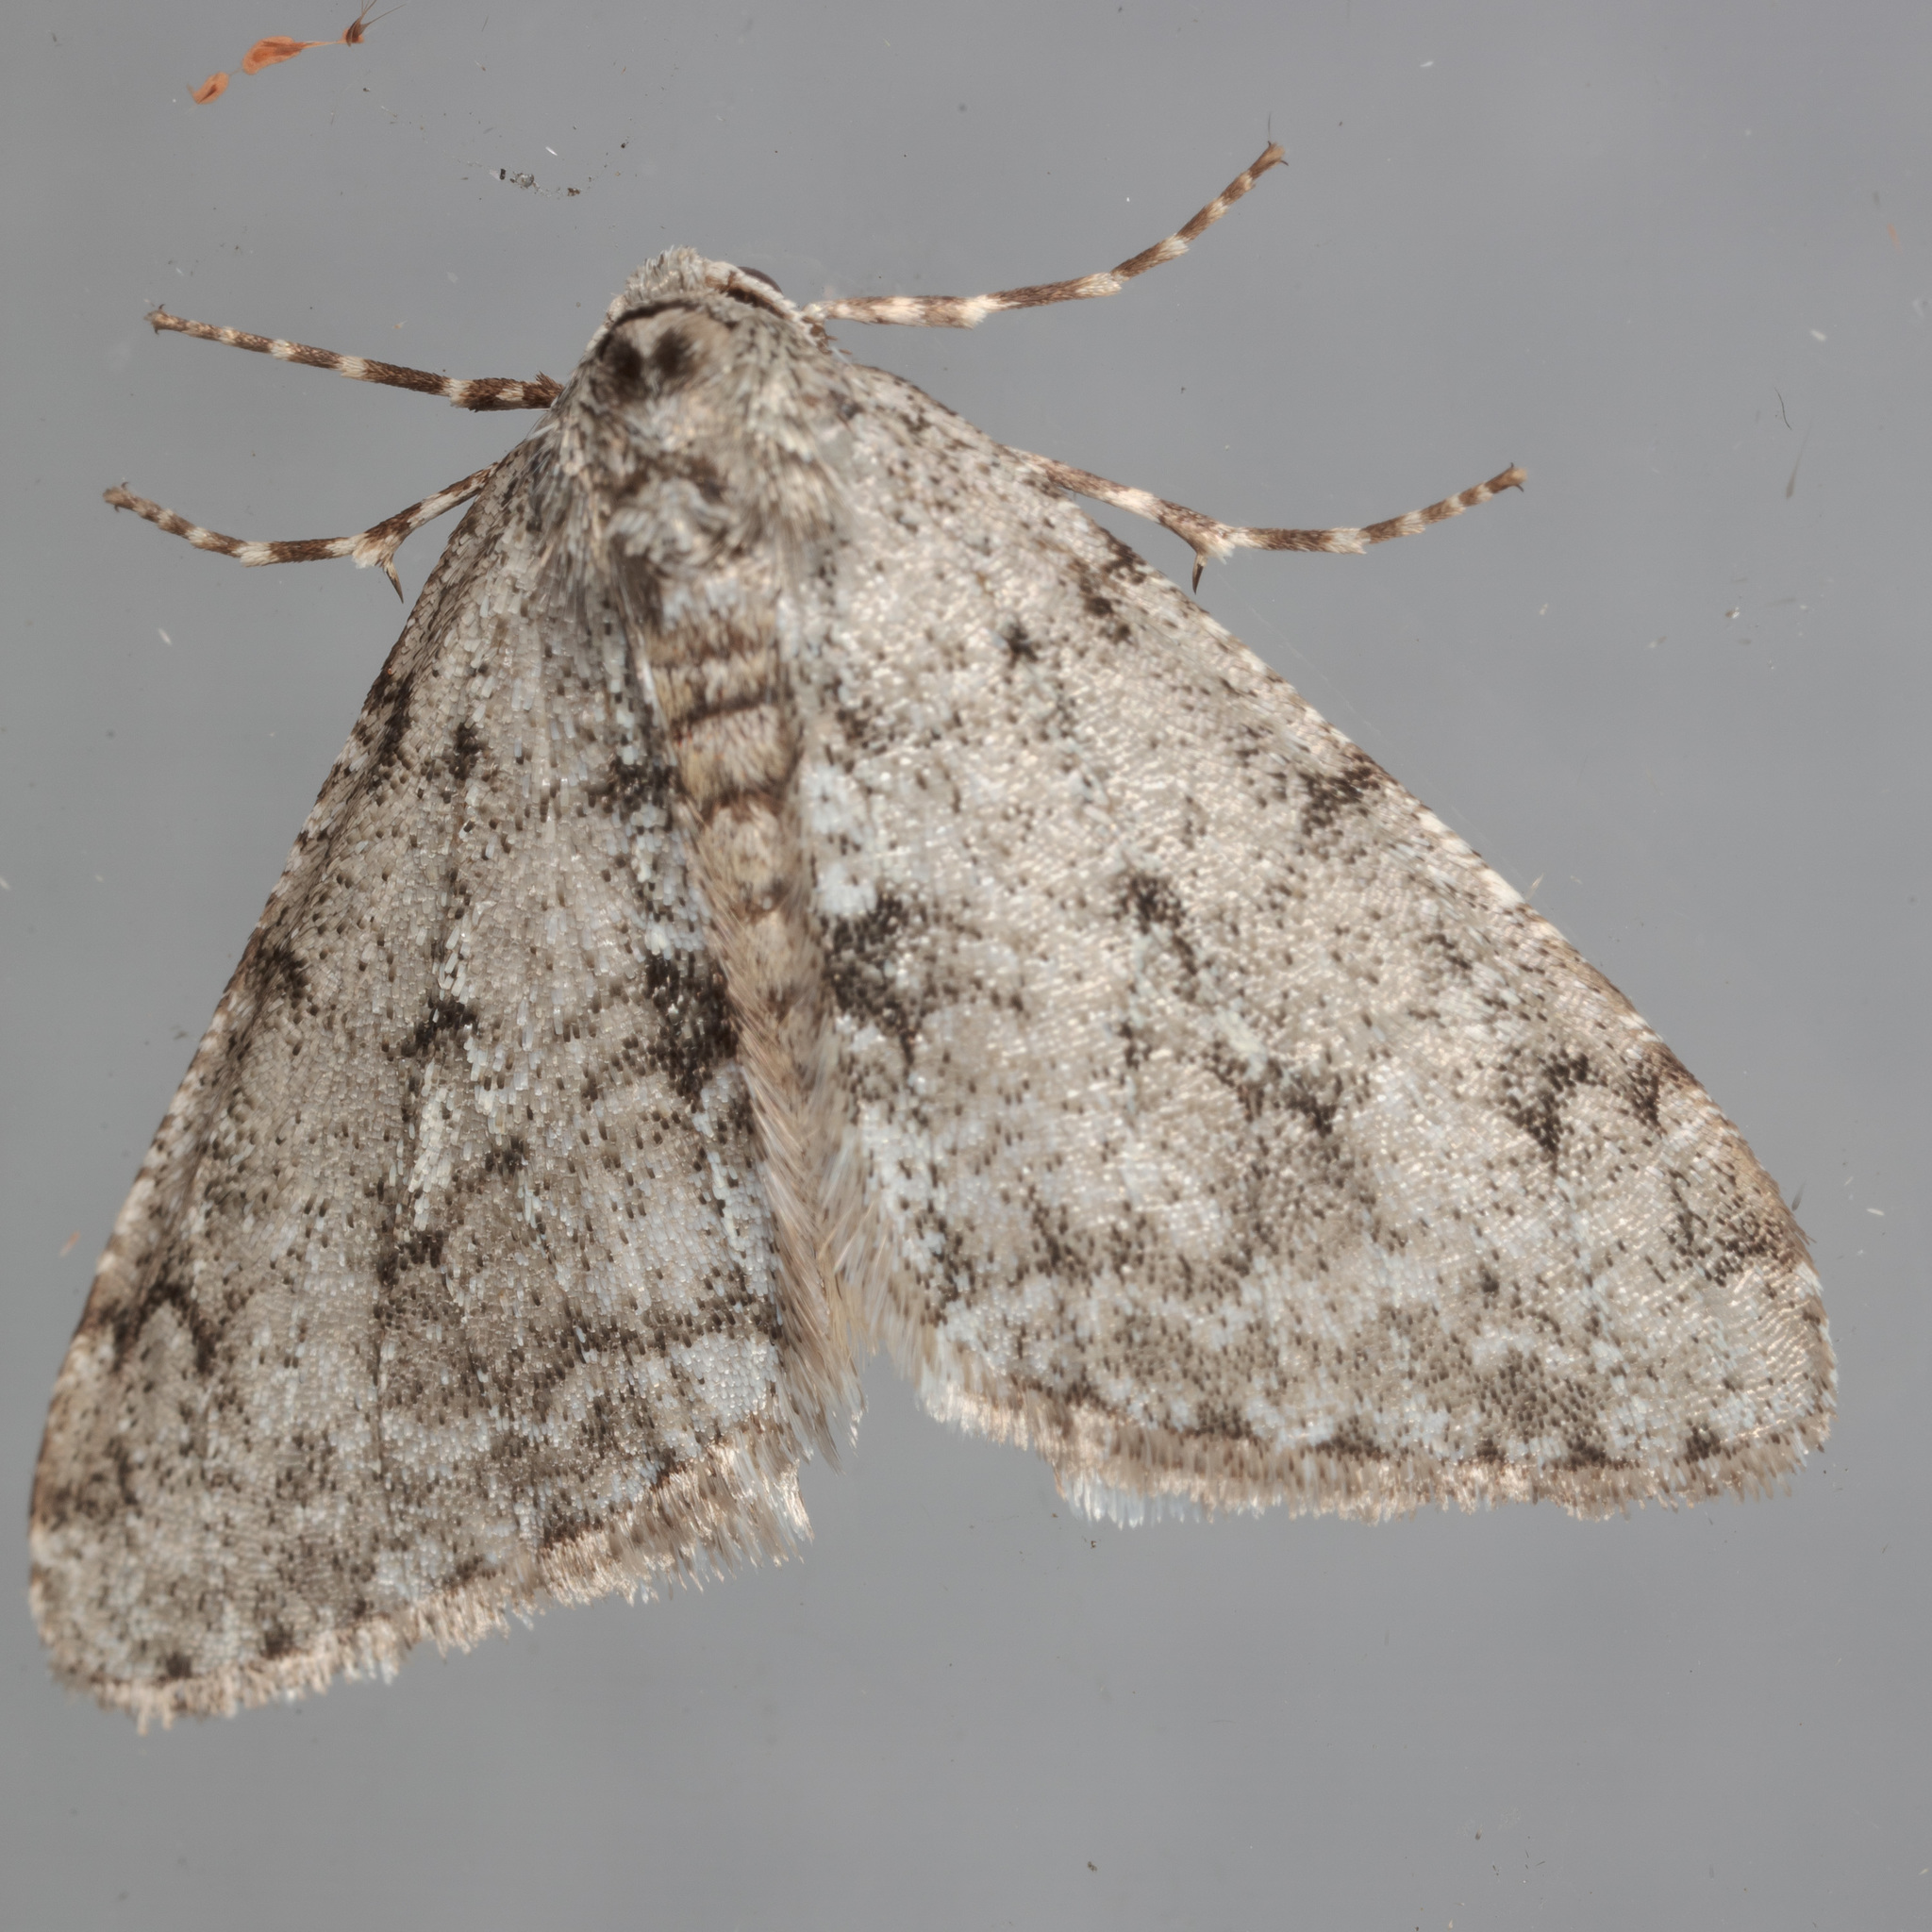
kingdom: Animalia
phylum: Arthropoda
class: Insecta
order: Lepidoptera
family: Geometridae
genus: Phigalia
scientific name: Phigalia strigataria
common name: Small phigalia
